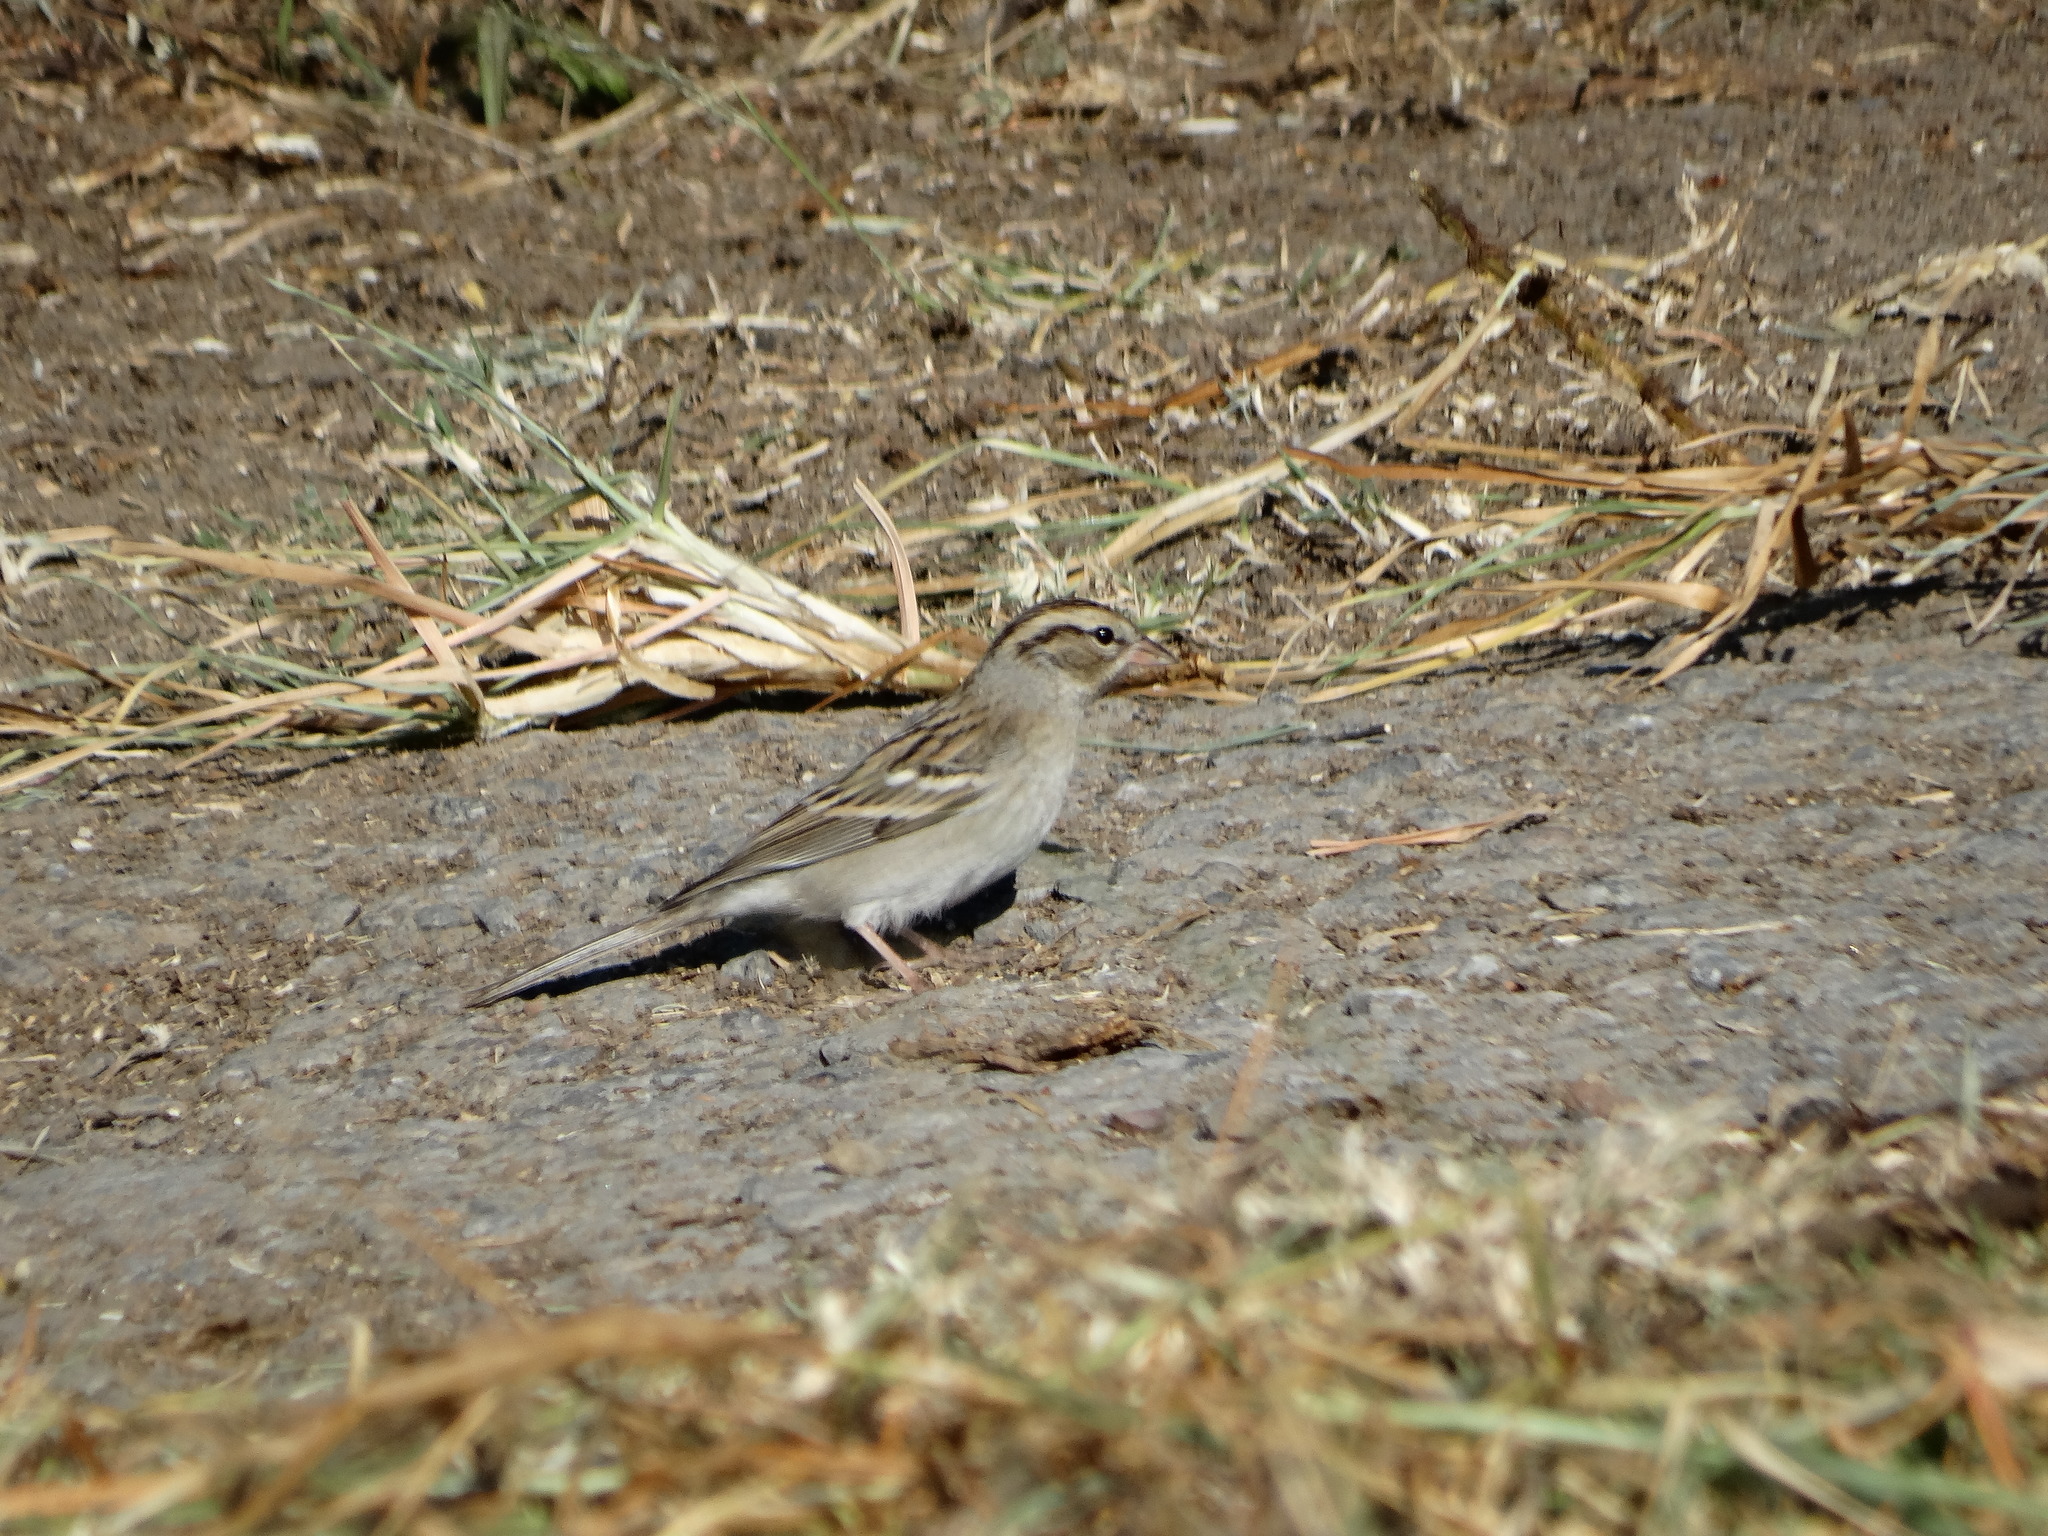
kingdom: Animalia
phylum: Chordata
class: Aves
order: Passeriformes
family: Passerellidae
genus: Spizella
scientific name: Spizella passerina
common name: Chipping sparrow
